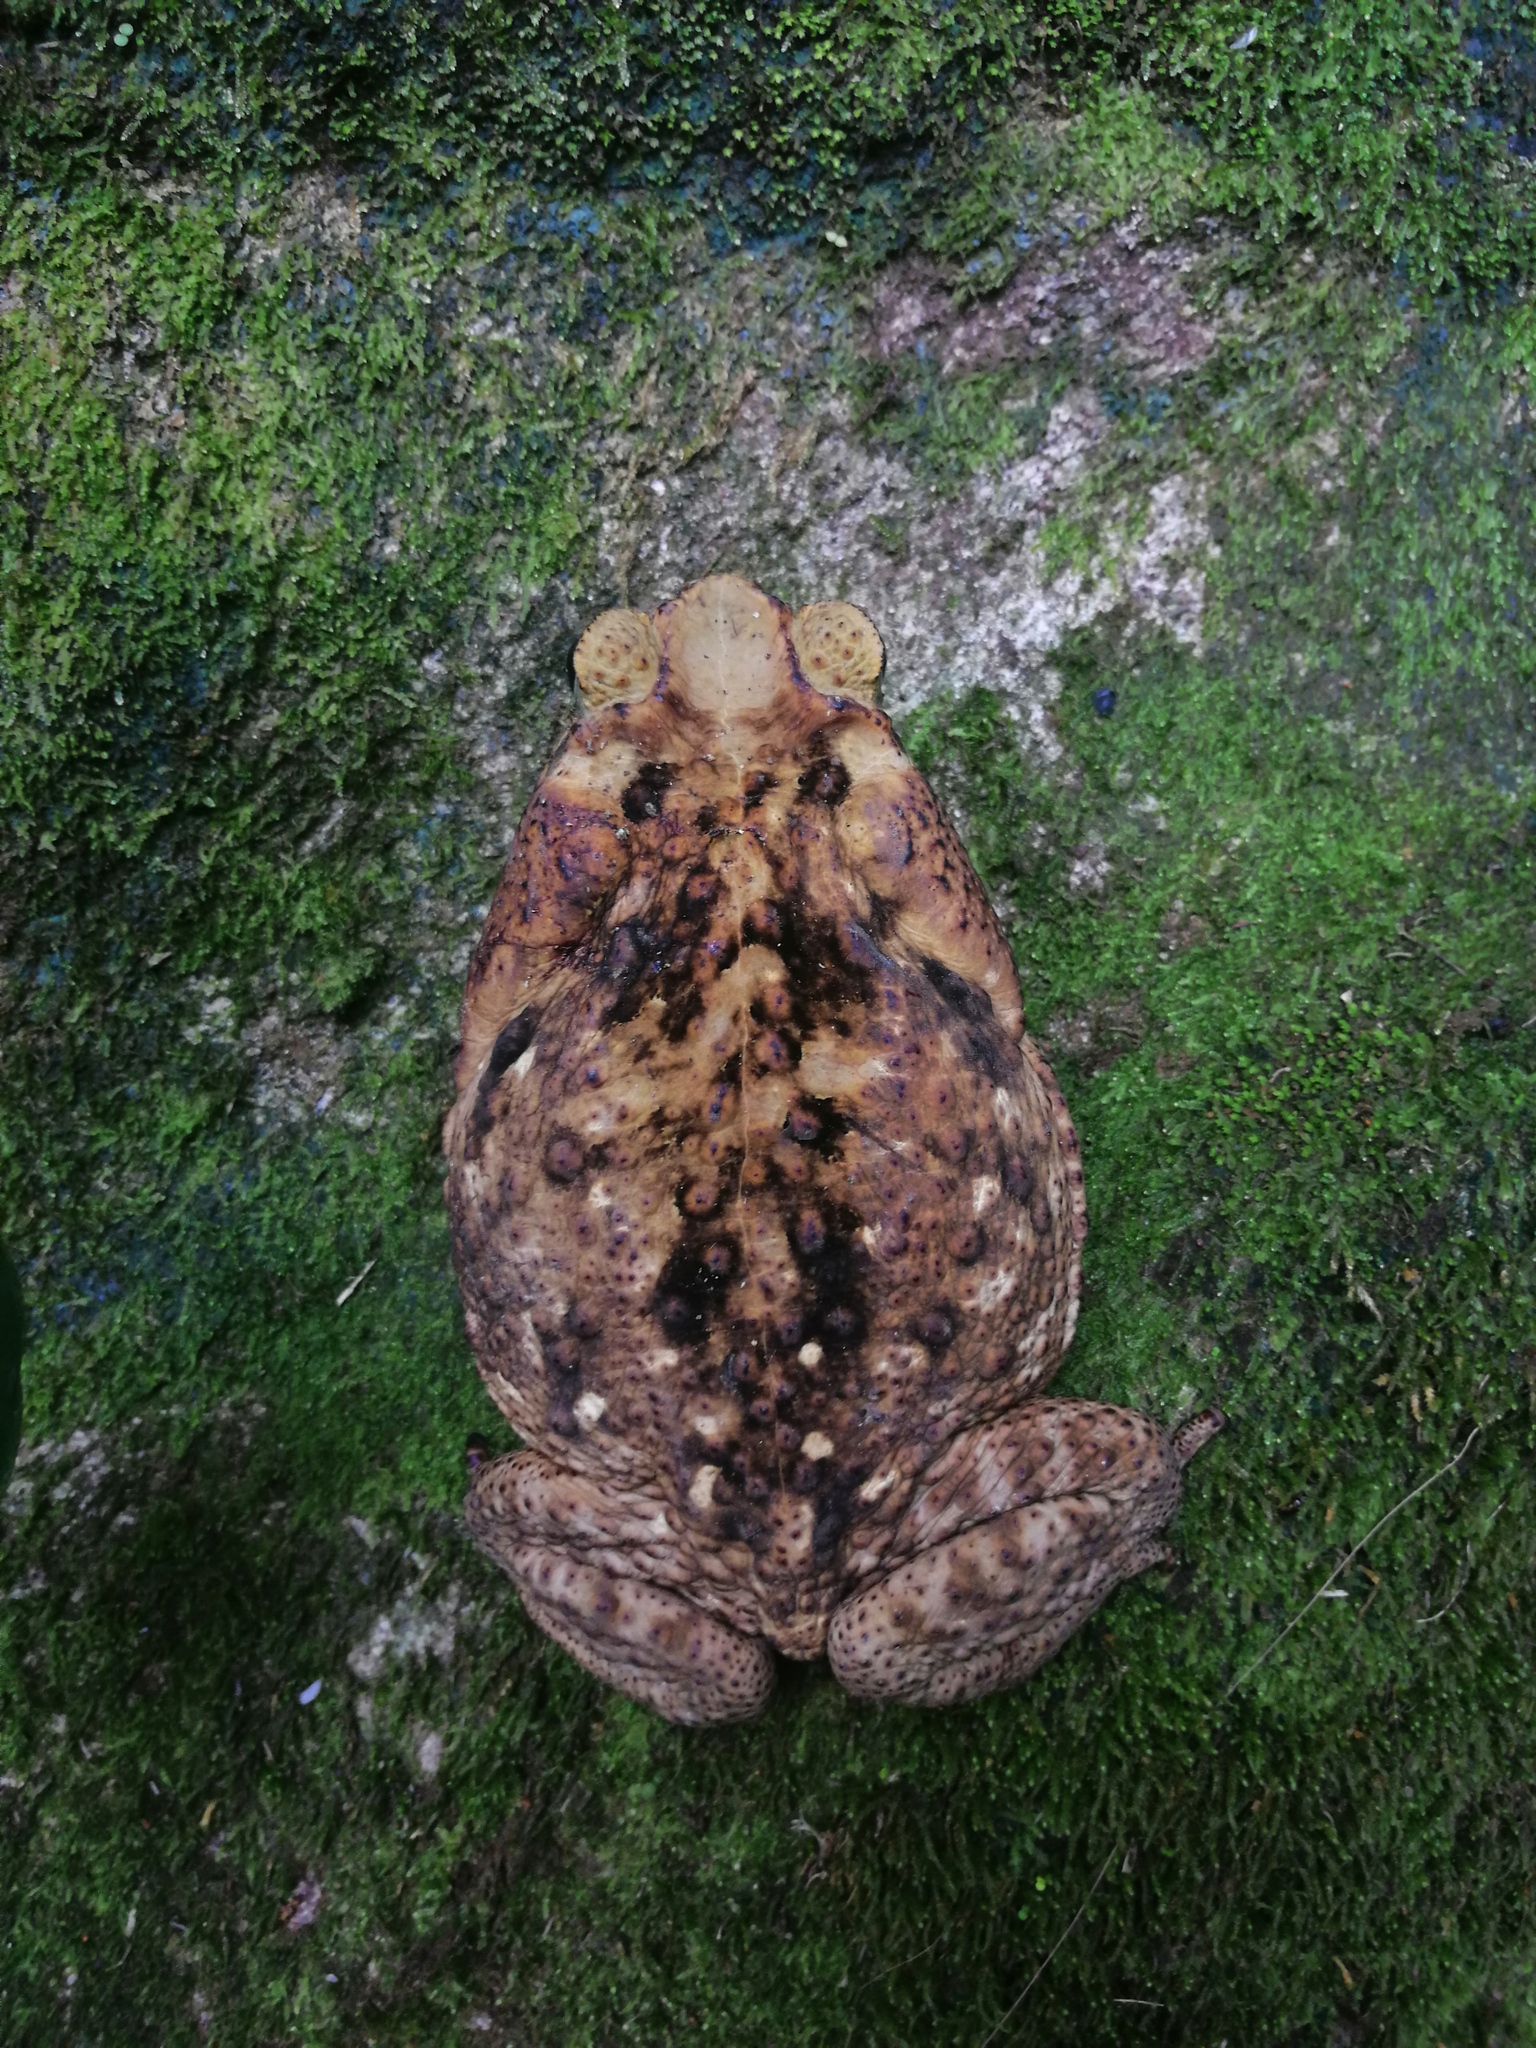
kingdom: Animalia
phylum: Chordata
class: Amphibia
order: Anura
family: Bufonidae
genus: Rhinella
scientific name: Rhinella horribilis
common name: Mesoamerican cane toad
